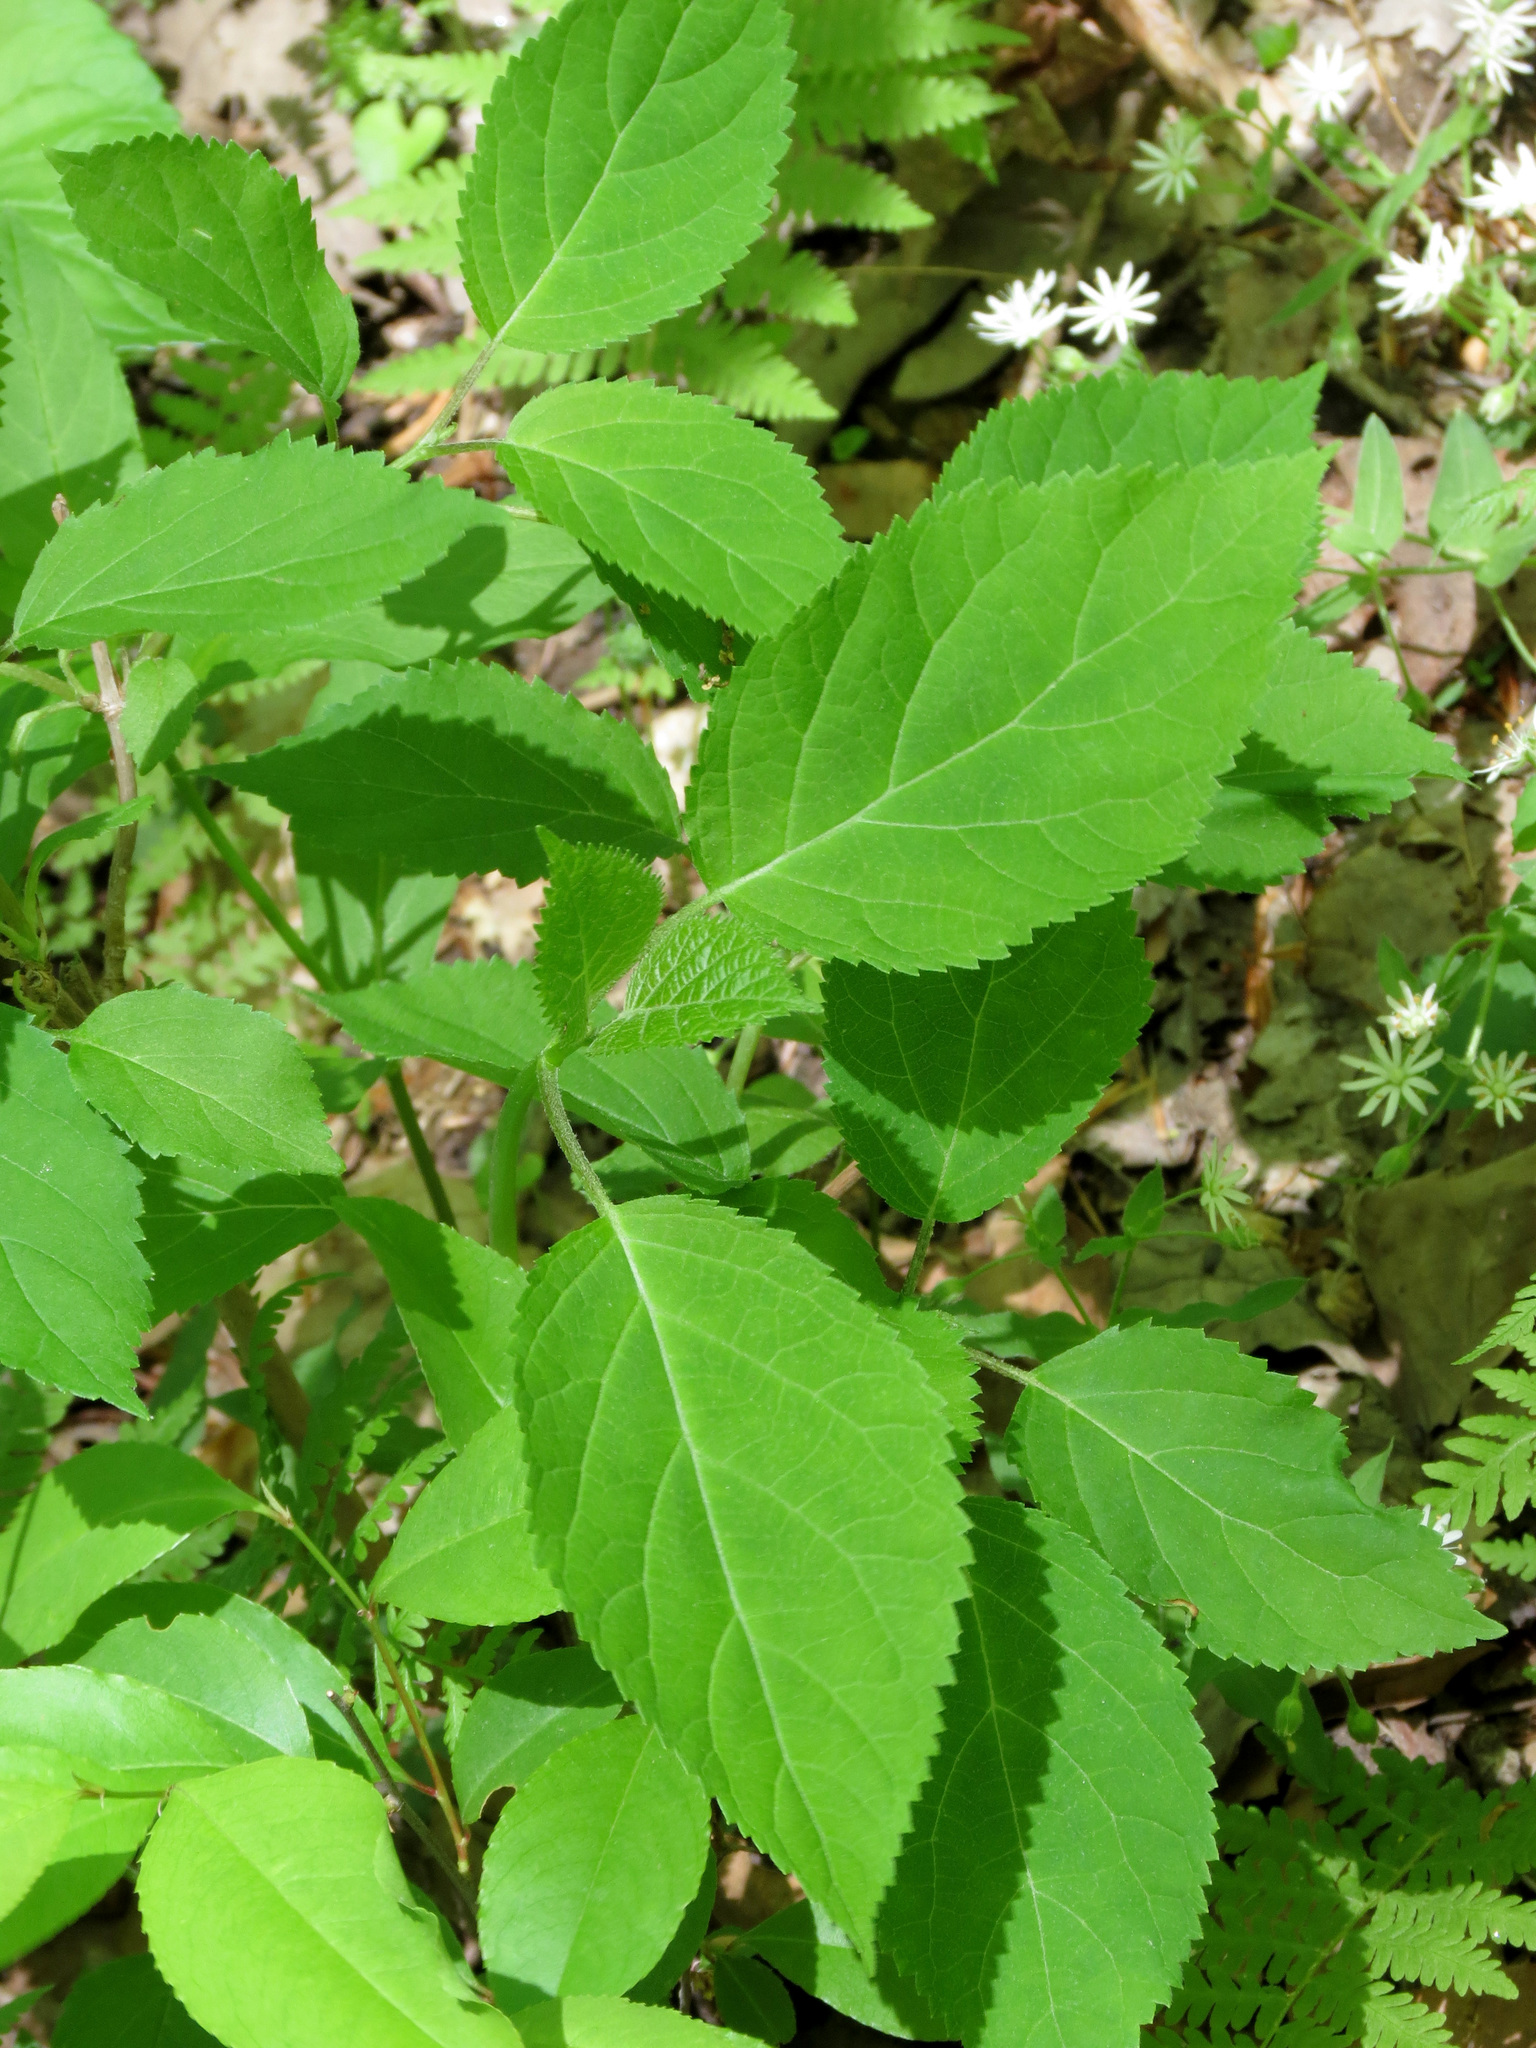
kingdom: Plantae
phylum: Tracheophyta
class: Magnoliopsida
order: Lamiales
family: Lamiaceae
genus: Collinsonia
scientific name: Collinsonia canadensis
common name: Northern horsebalm
